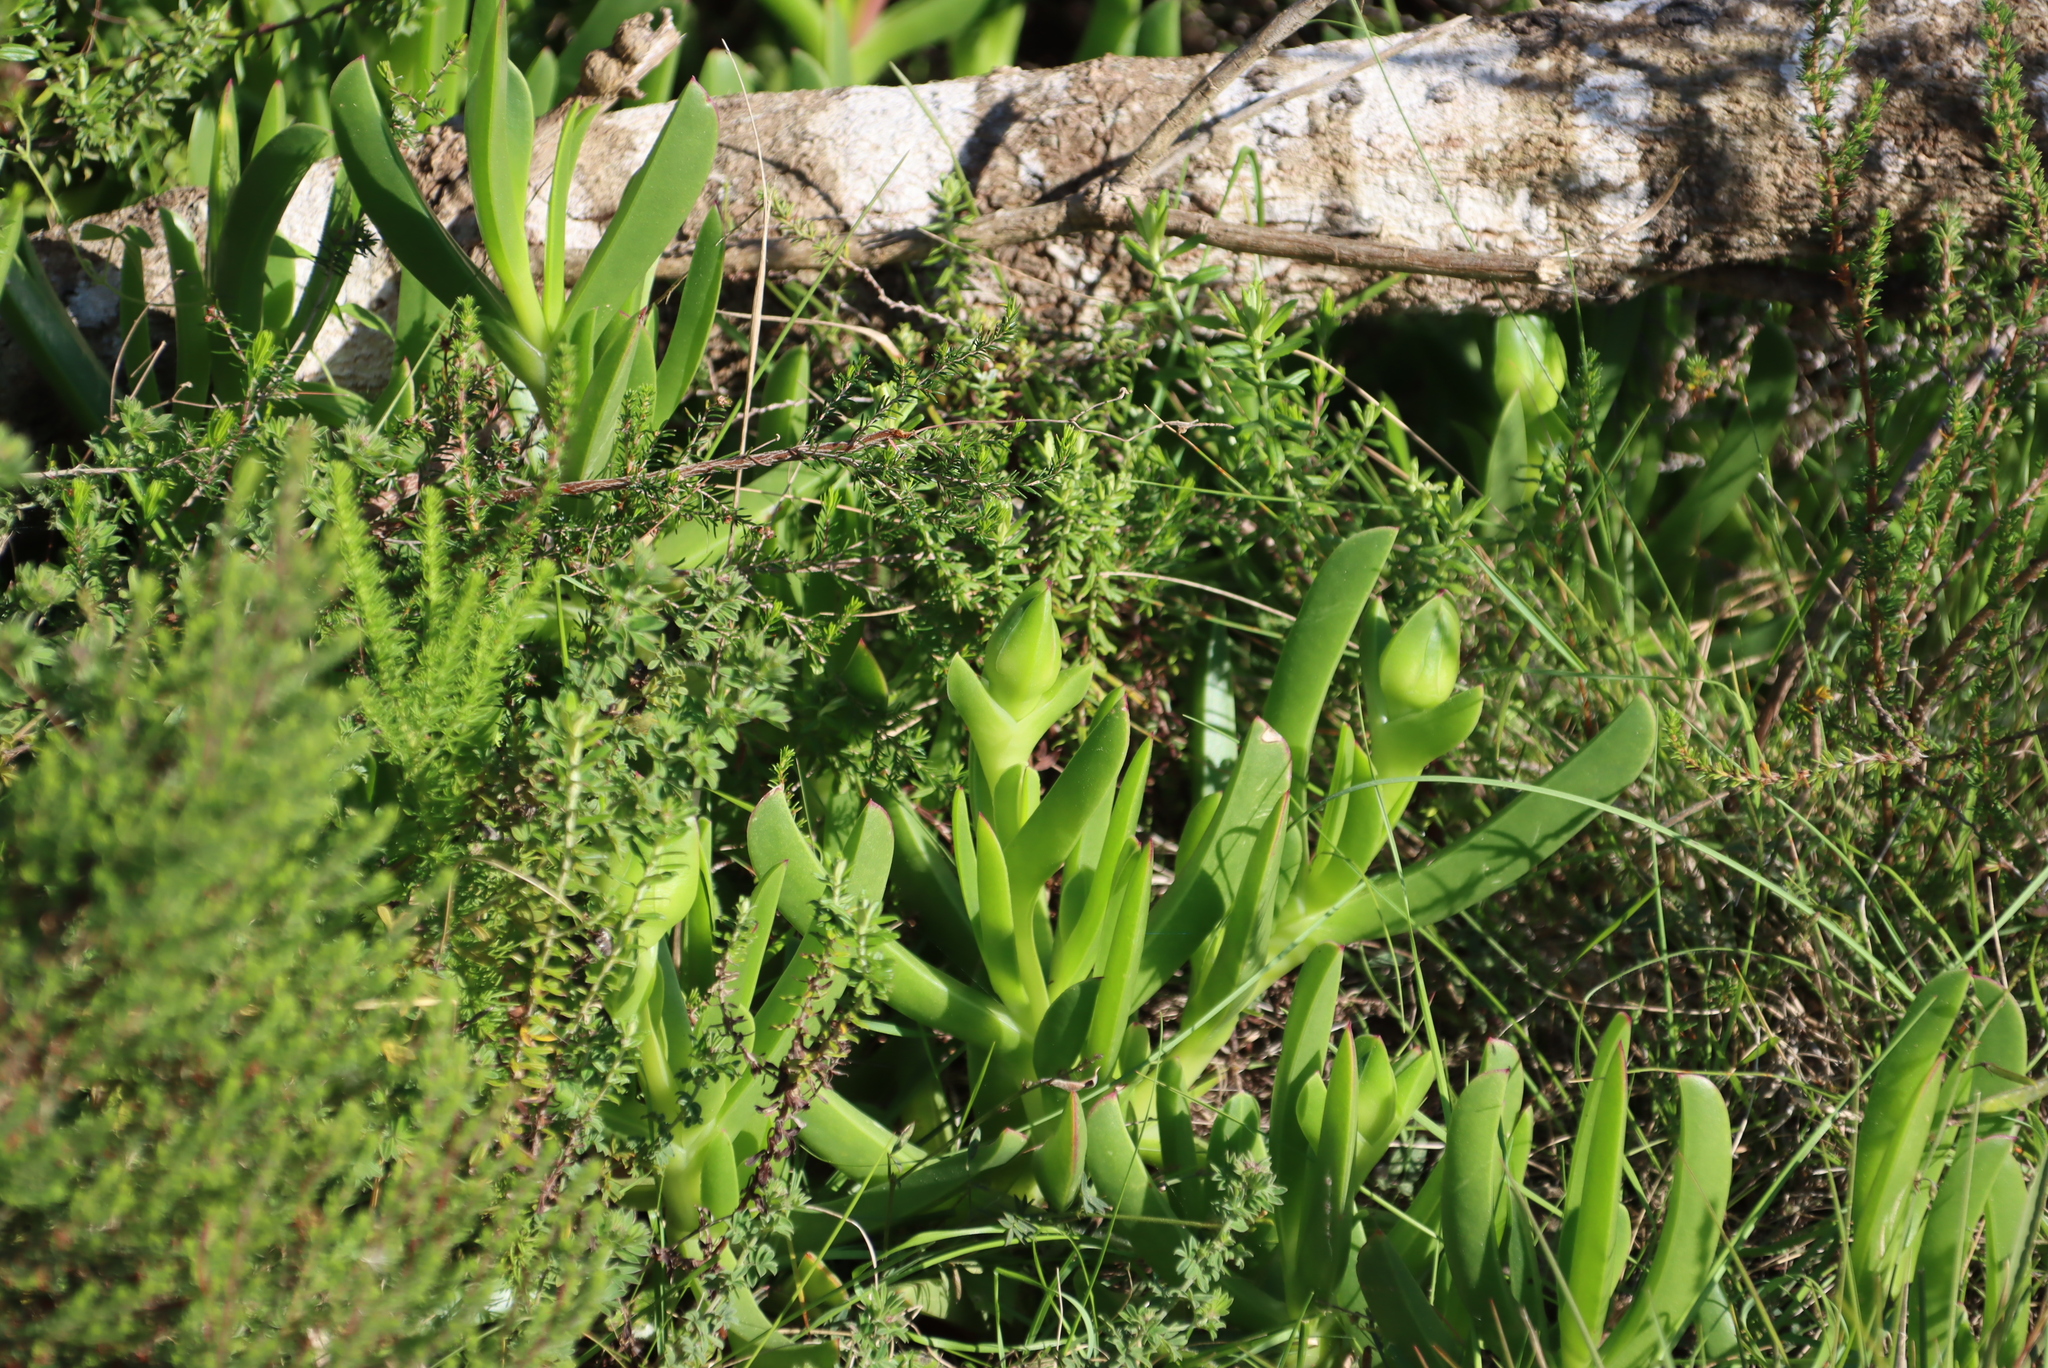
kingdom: Plantae
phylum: Tracheophyta
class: Magnoliopsida
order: Caryophyllales
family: Aizoaceae
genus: Carpobrotus
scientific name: Carpobrotus deliciosus
